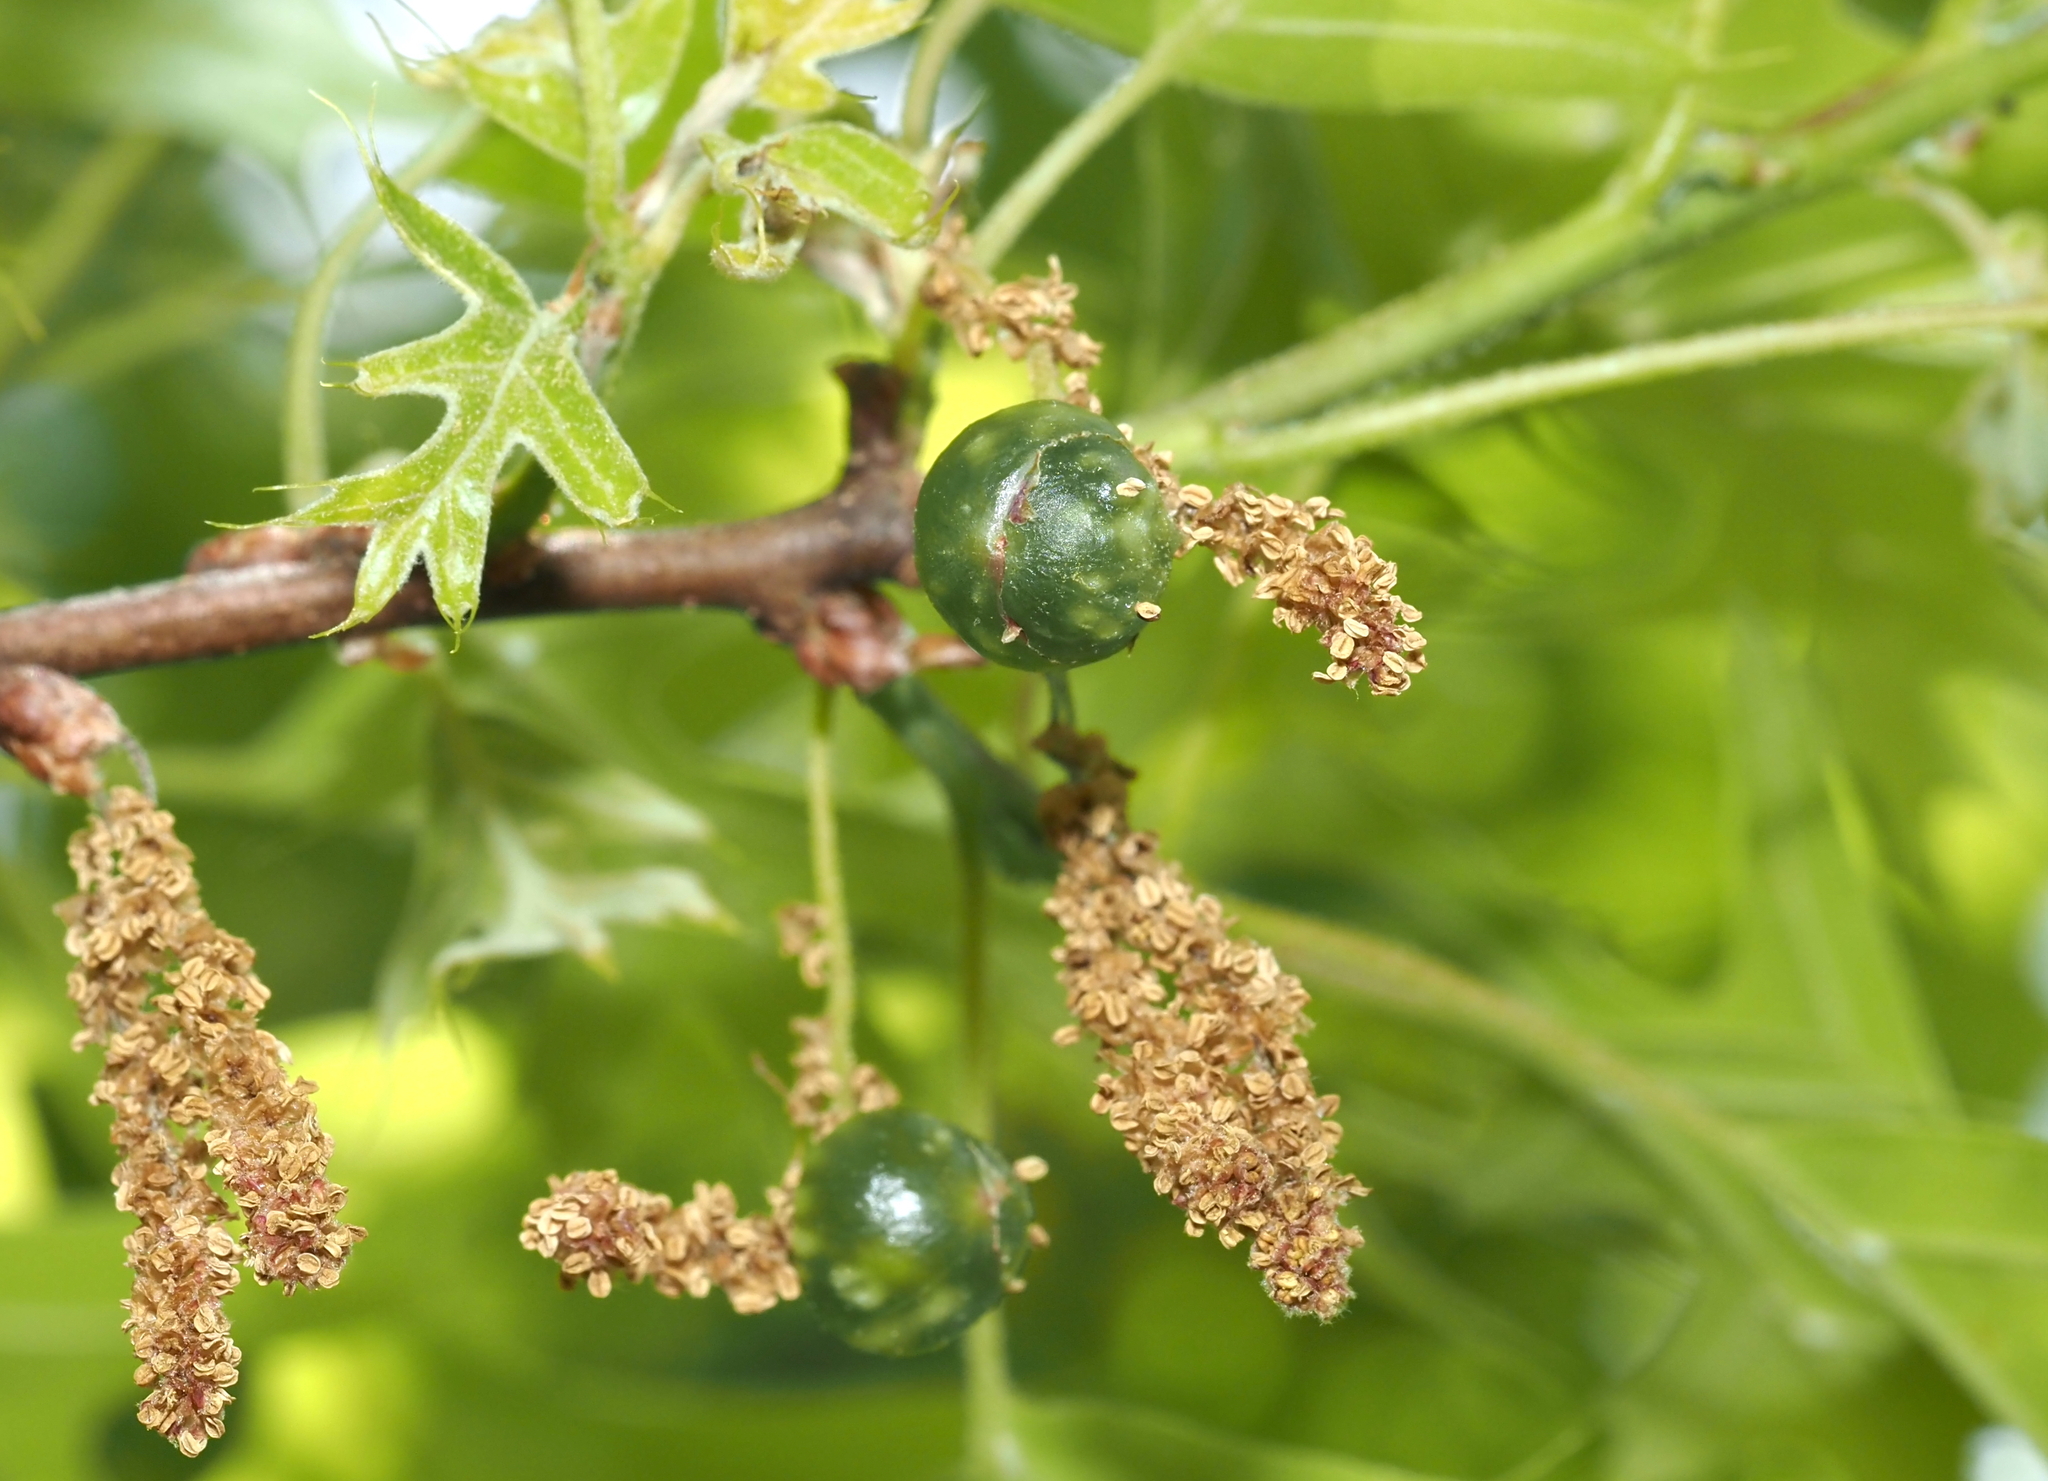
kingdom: Animalia
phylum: Arthropoda
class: Insecta
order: Hymenoptera
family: Cynipidae
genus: Dryocosmus
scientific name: Dryocosmus quercuspalustris
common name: Succulent oak gall wasp
